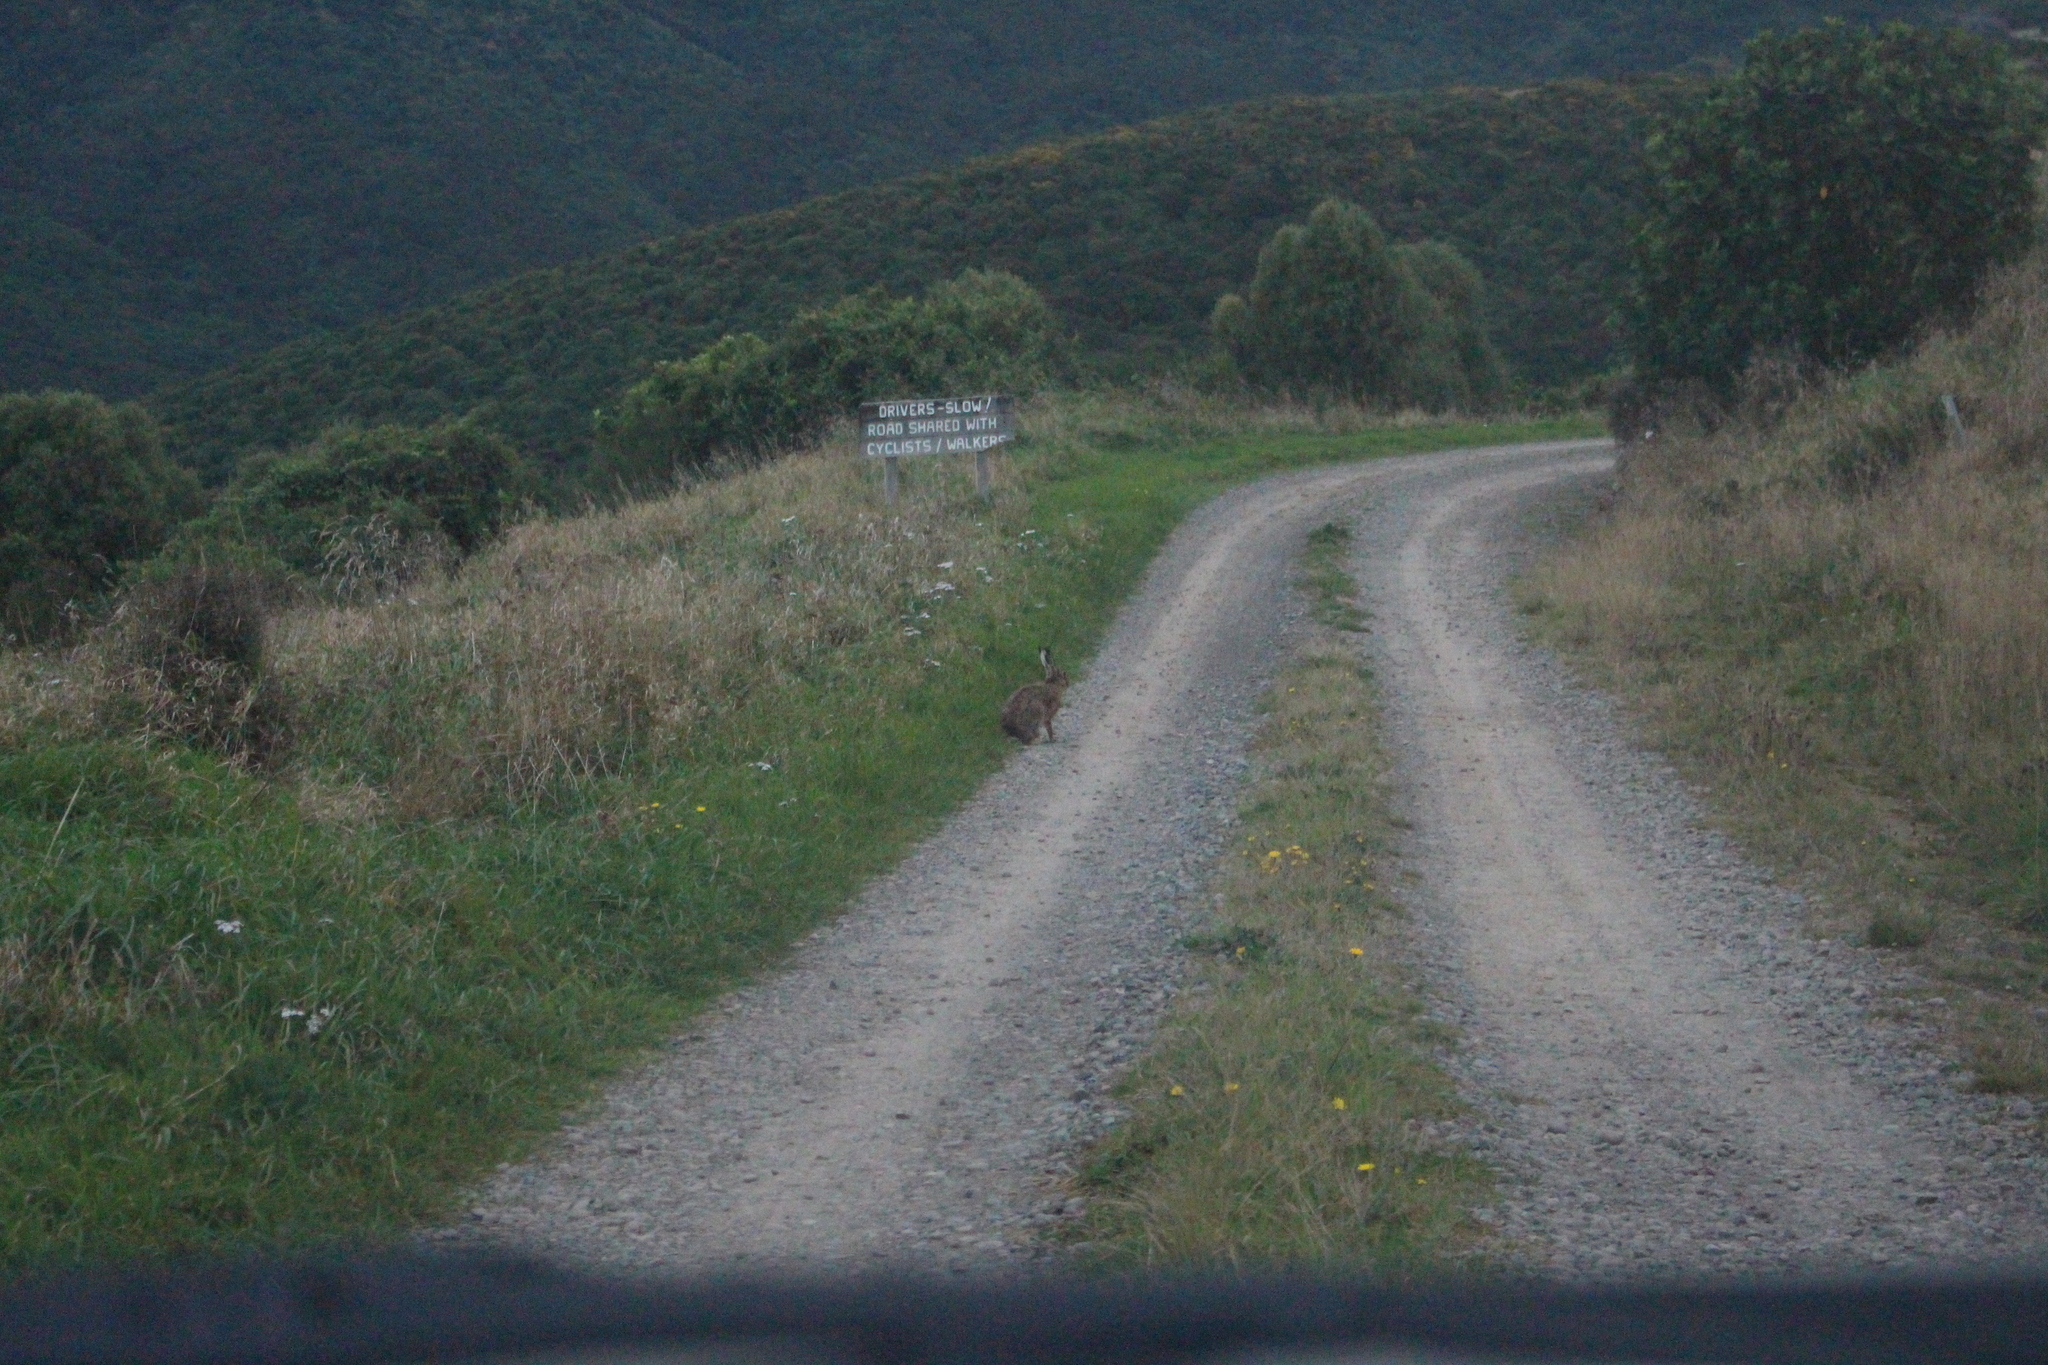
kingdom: Animalia
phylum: Chordata
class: Mammalia
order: Lagomorpha
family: Leporidae
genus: Lepus
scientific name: Lepus europaeus
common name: European hare
